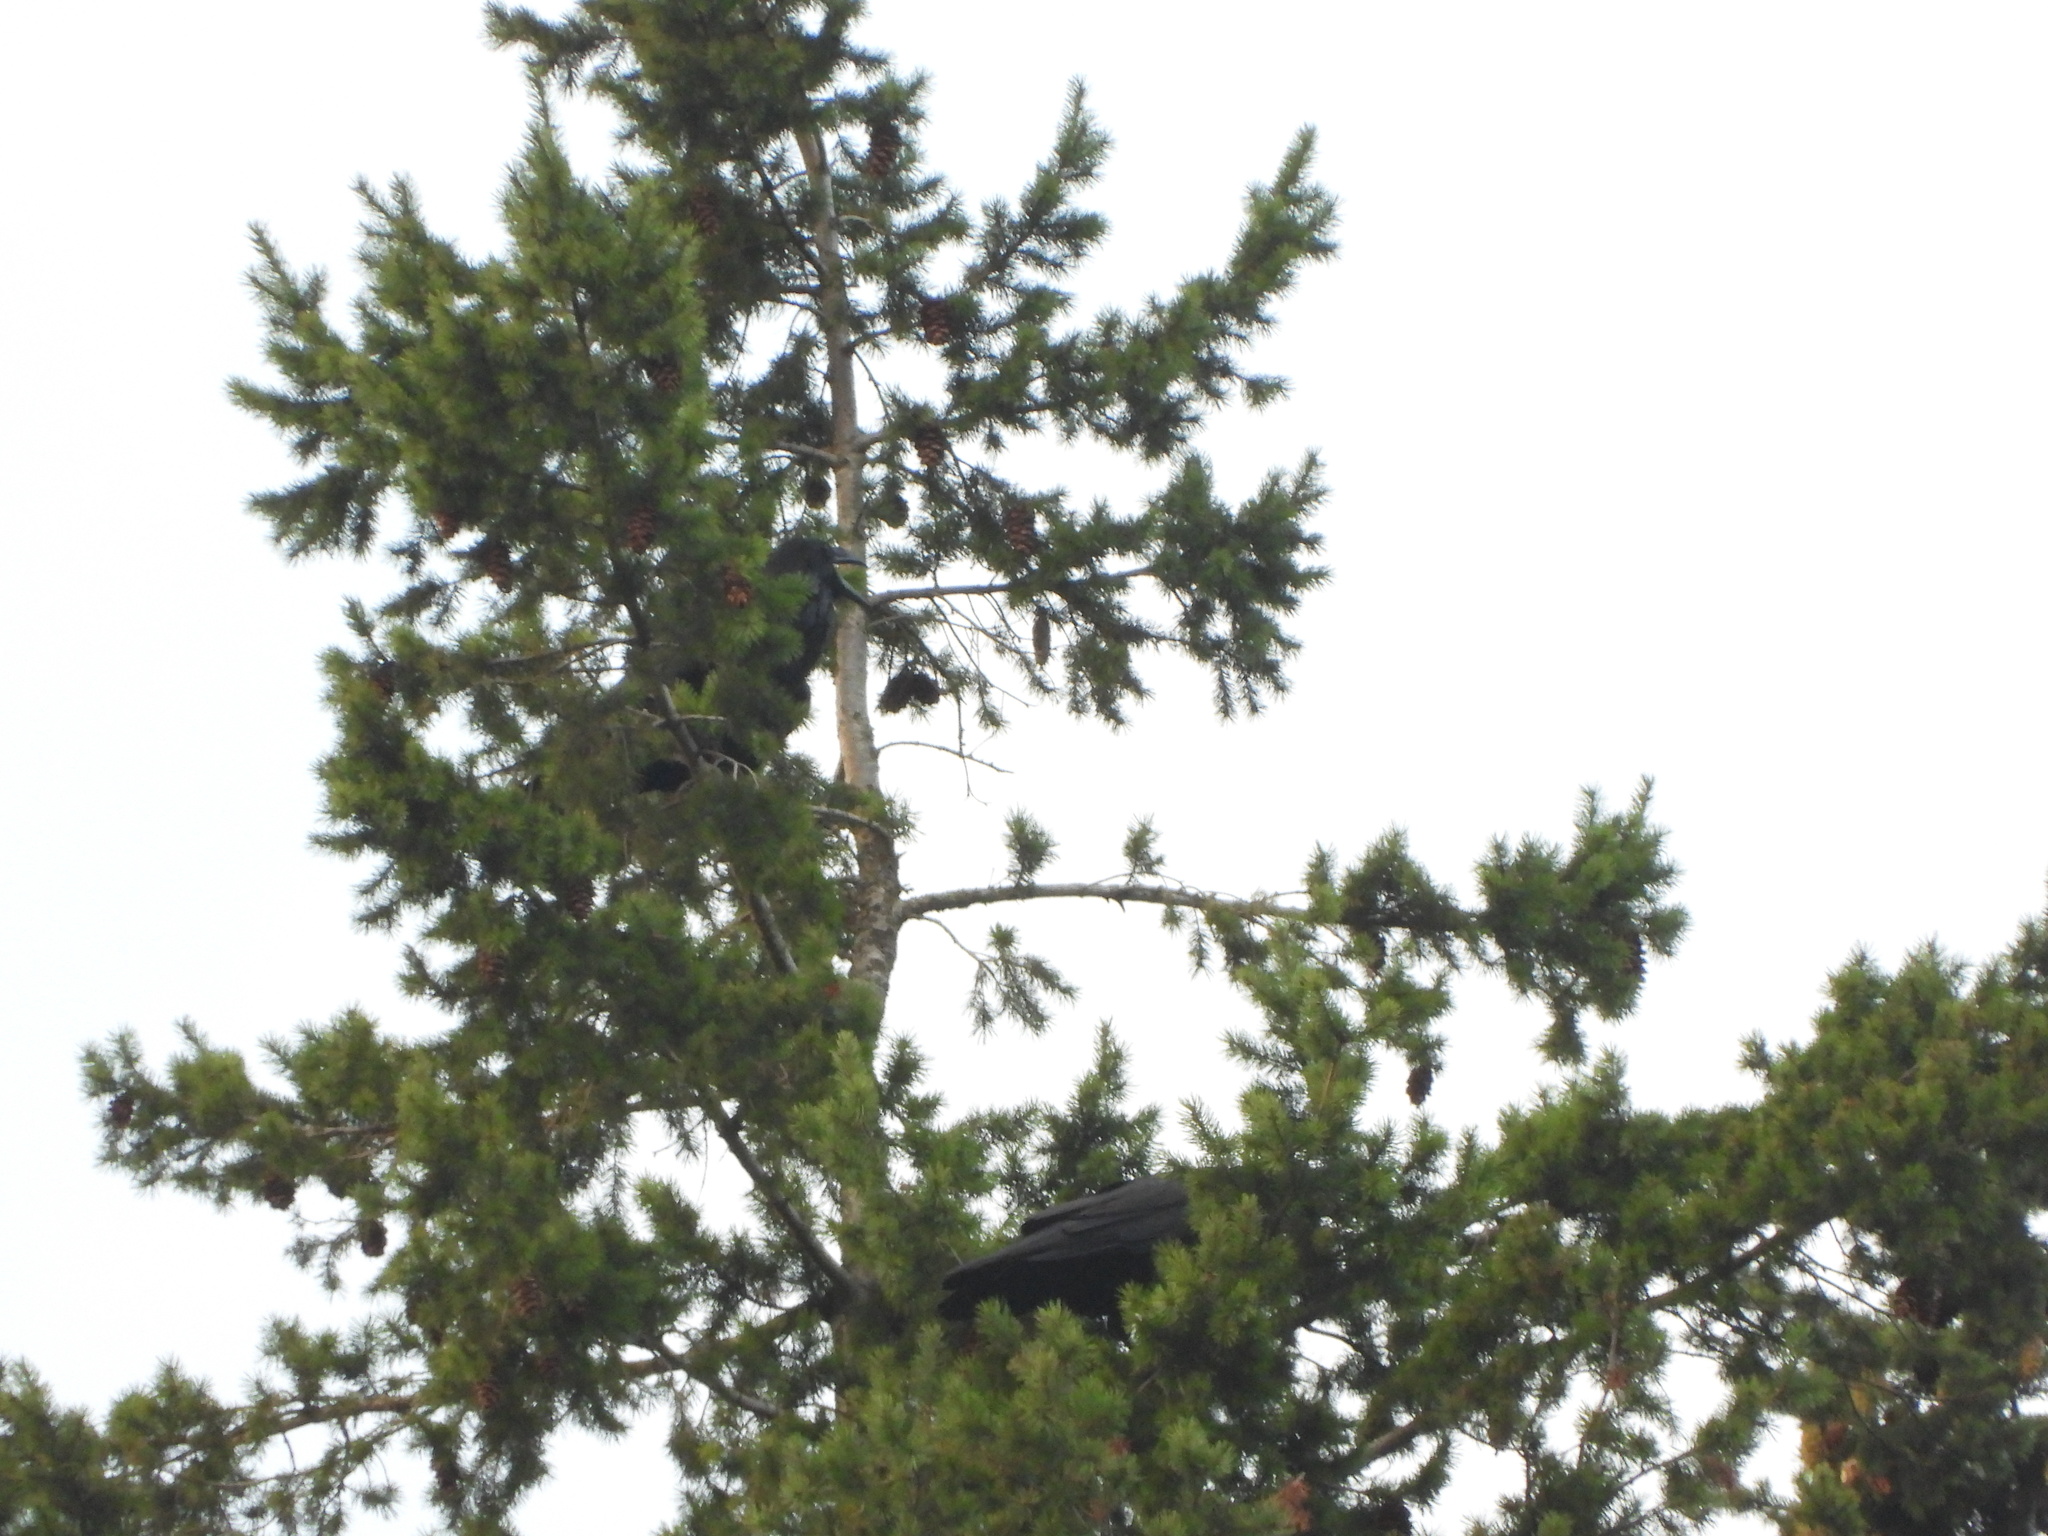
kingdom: Animalia
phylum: Chordata
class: Aves
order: Passeriformes
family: Corvidae
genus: Corvus
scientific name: Corvus corax
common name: Common raven
